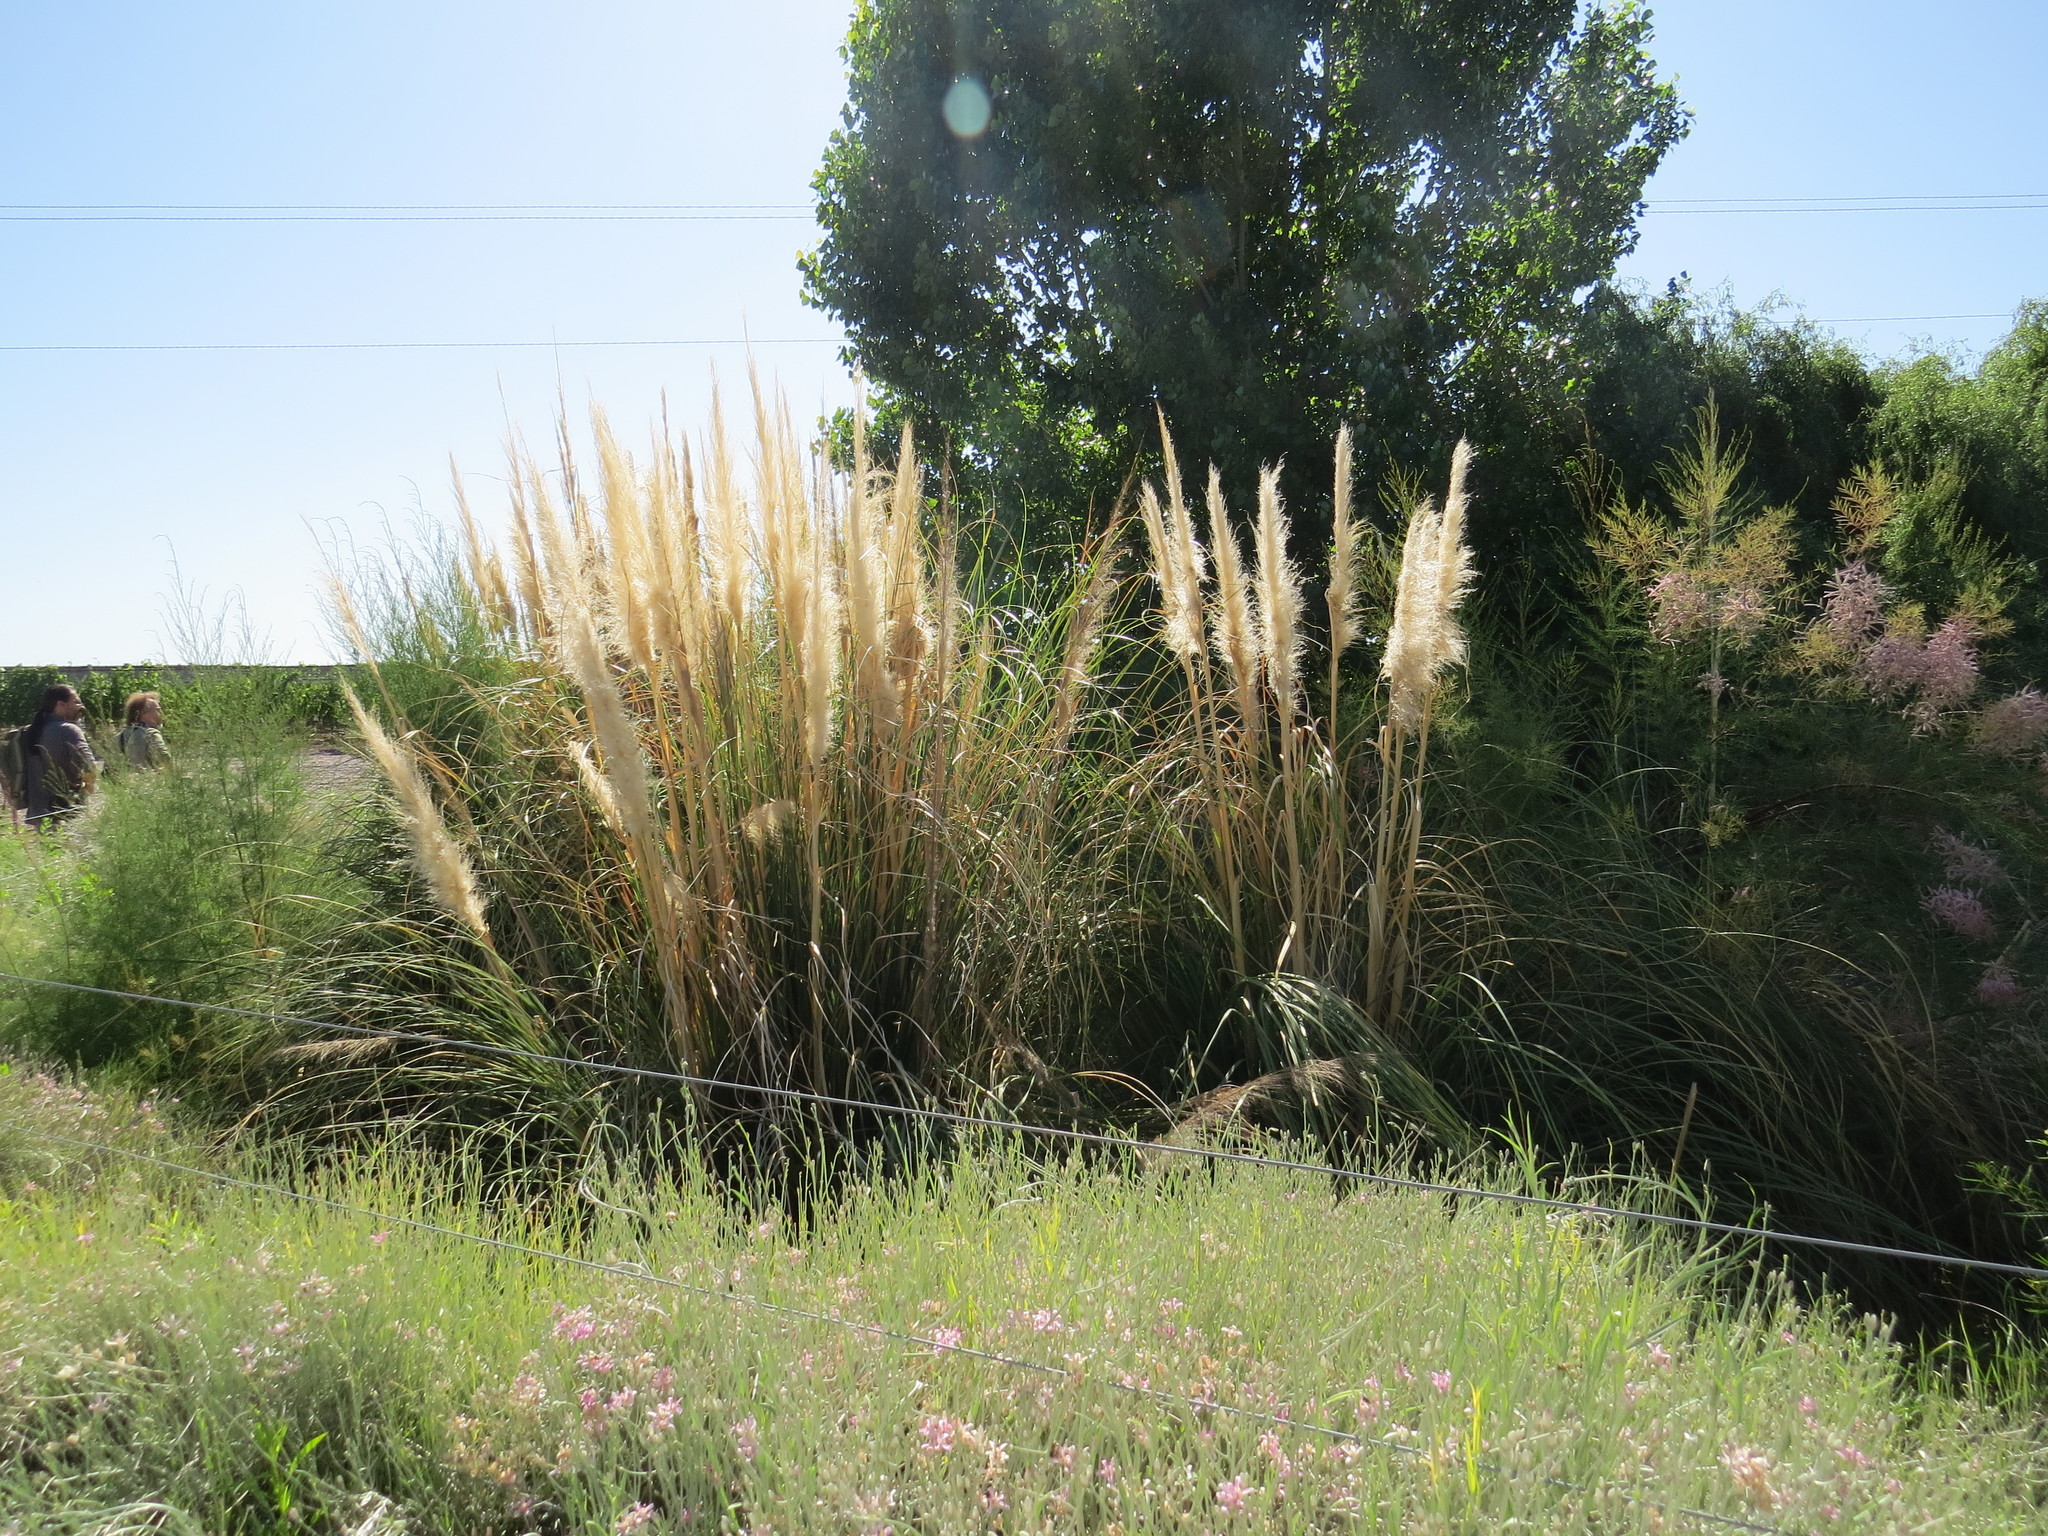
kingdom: Plantae
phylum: Tracheophyta
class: Liliopsida
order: Poales
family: Poaceae
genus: Cortaderia
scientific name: Cortaderia selloana
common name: Uruguayan pampas grass
